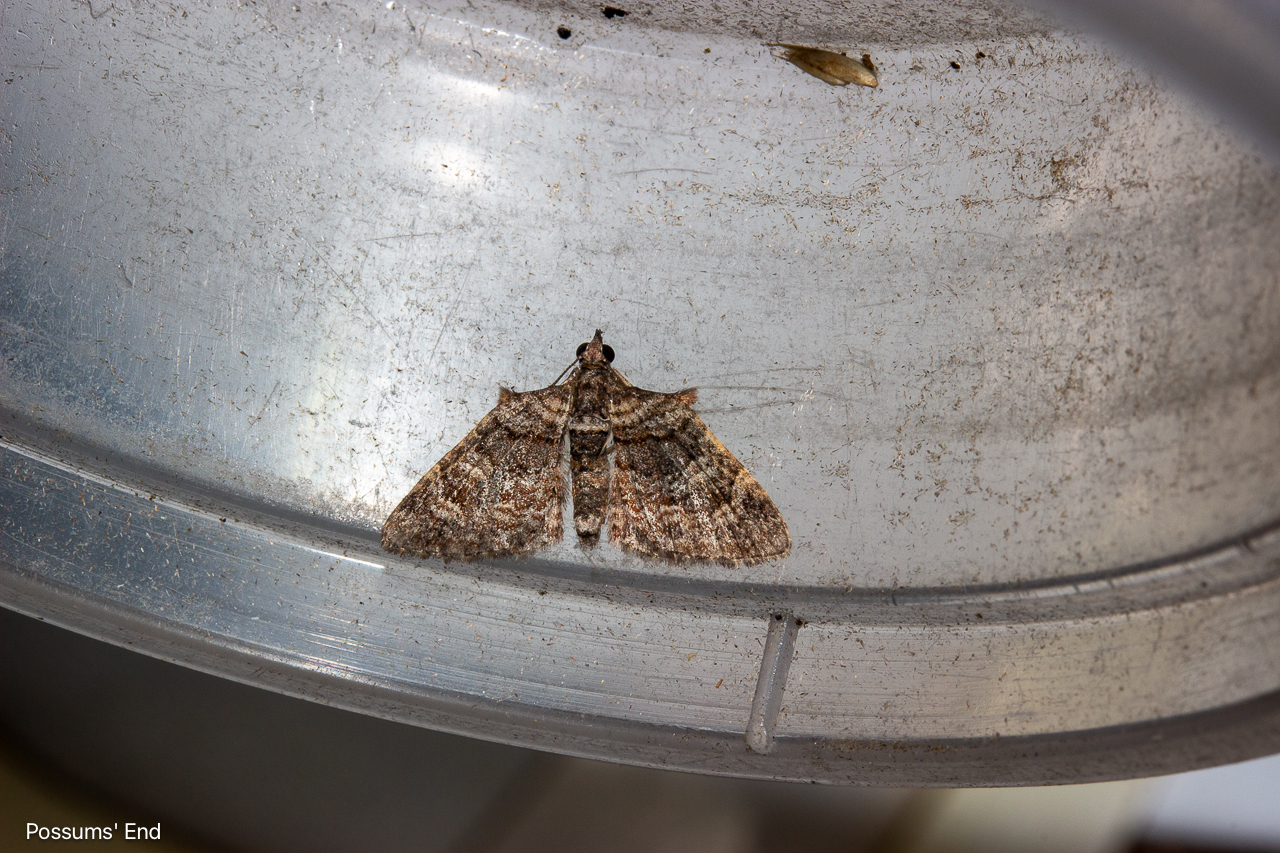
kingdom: Animalia
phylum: Arthropoda
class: Insecta
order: Lepidoptera
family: Geometridae
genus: Phrissogonus
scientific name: Phrissogonus laticostata
